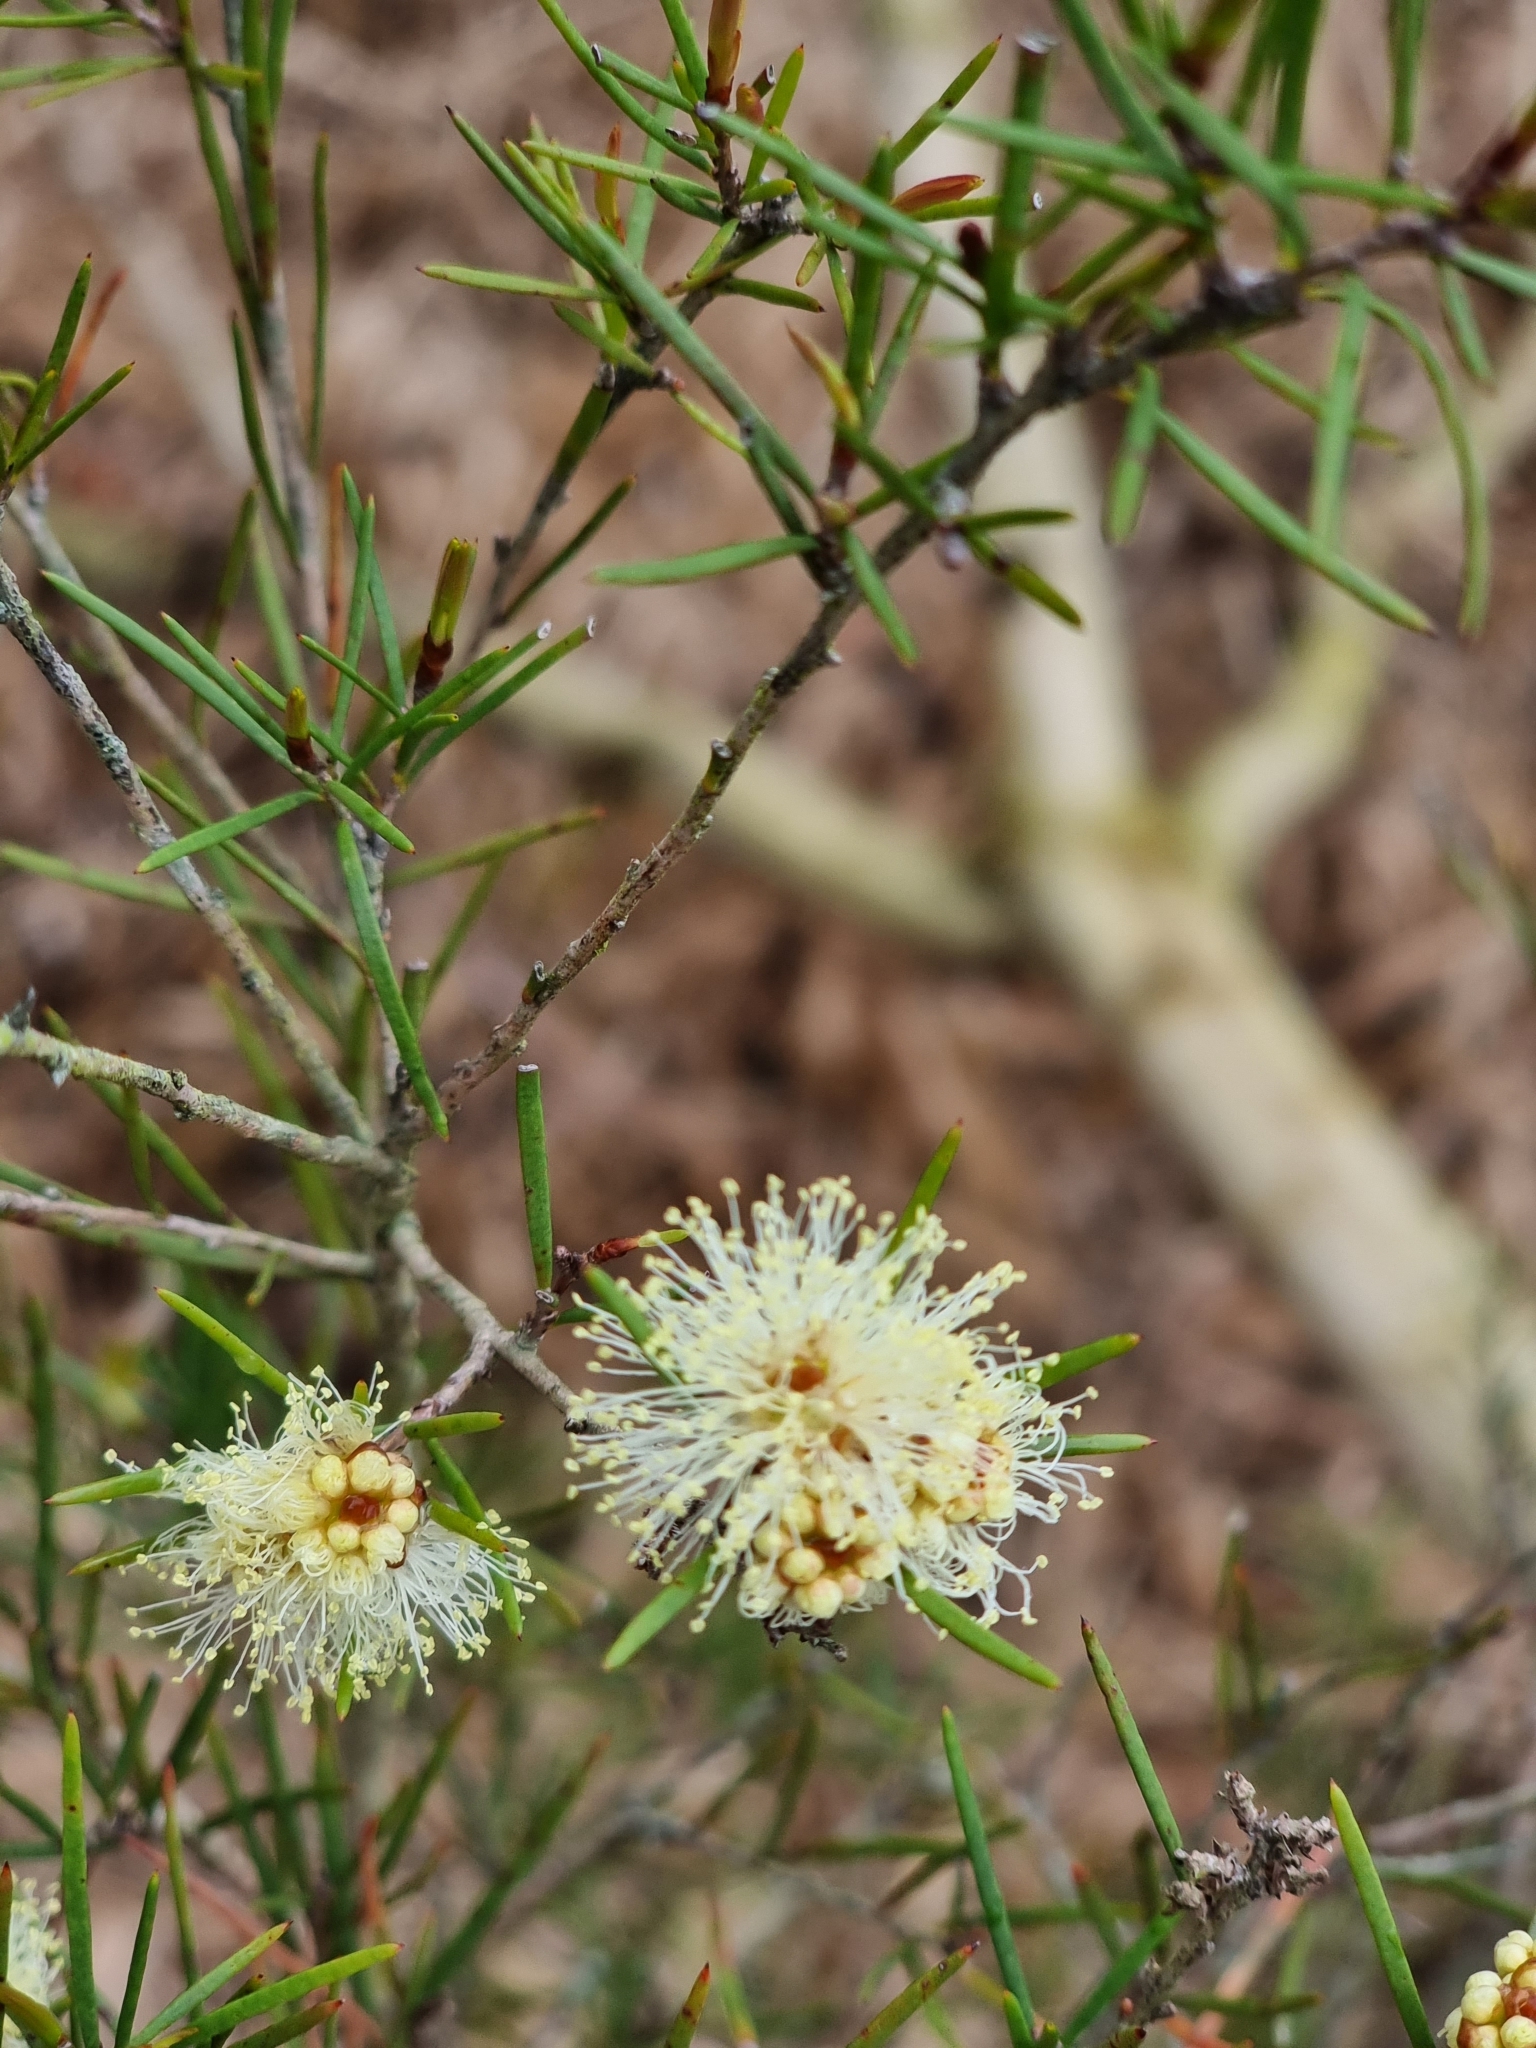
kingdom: Plantae
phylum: Tracheophyta
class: Magnoliopsida
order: Myrtales
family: Myrtaceae
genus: Melaleuca
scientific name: Melaleuca nodosa
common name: Prickly-leaf paperbark
